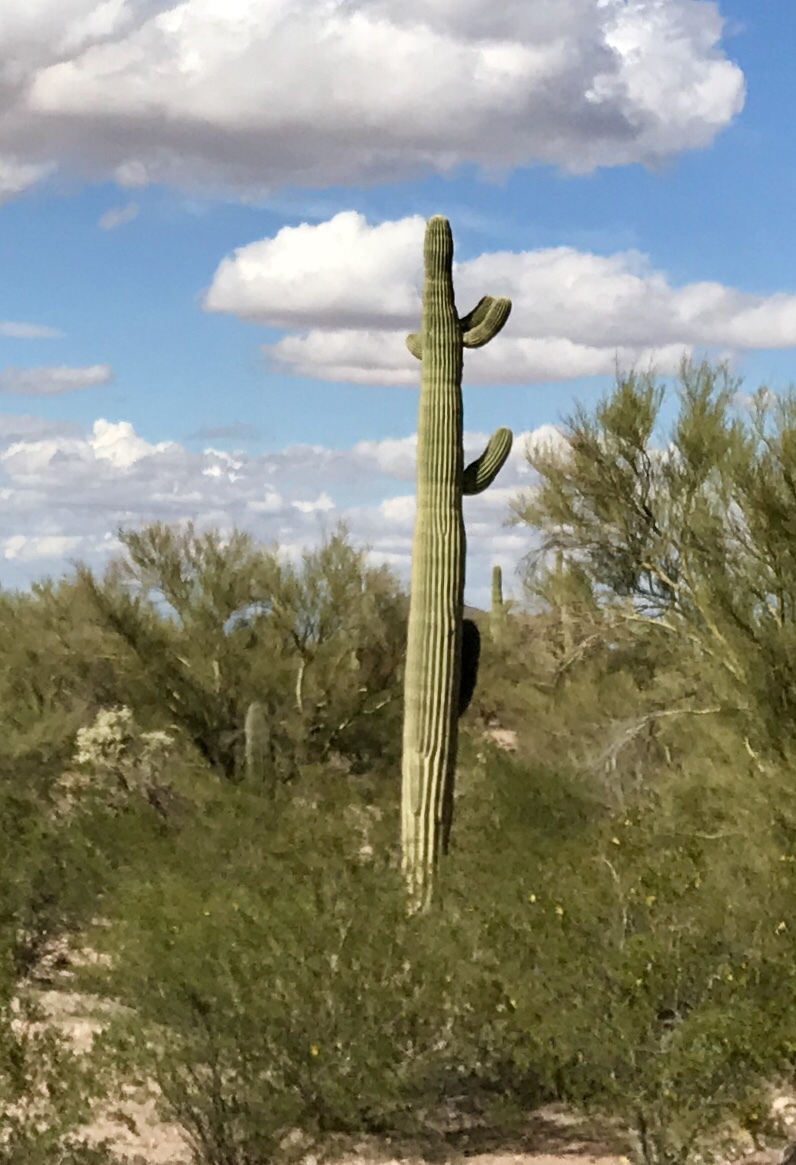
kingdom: Plantae
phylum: Tracheophyta
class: Magnoliopsida
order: Caryophyllales
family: Cactaceae
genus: Carnegiea
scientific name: Carnegiea gigantea
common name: Saguaro
